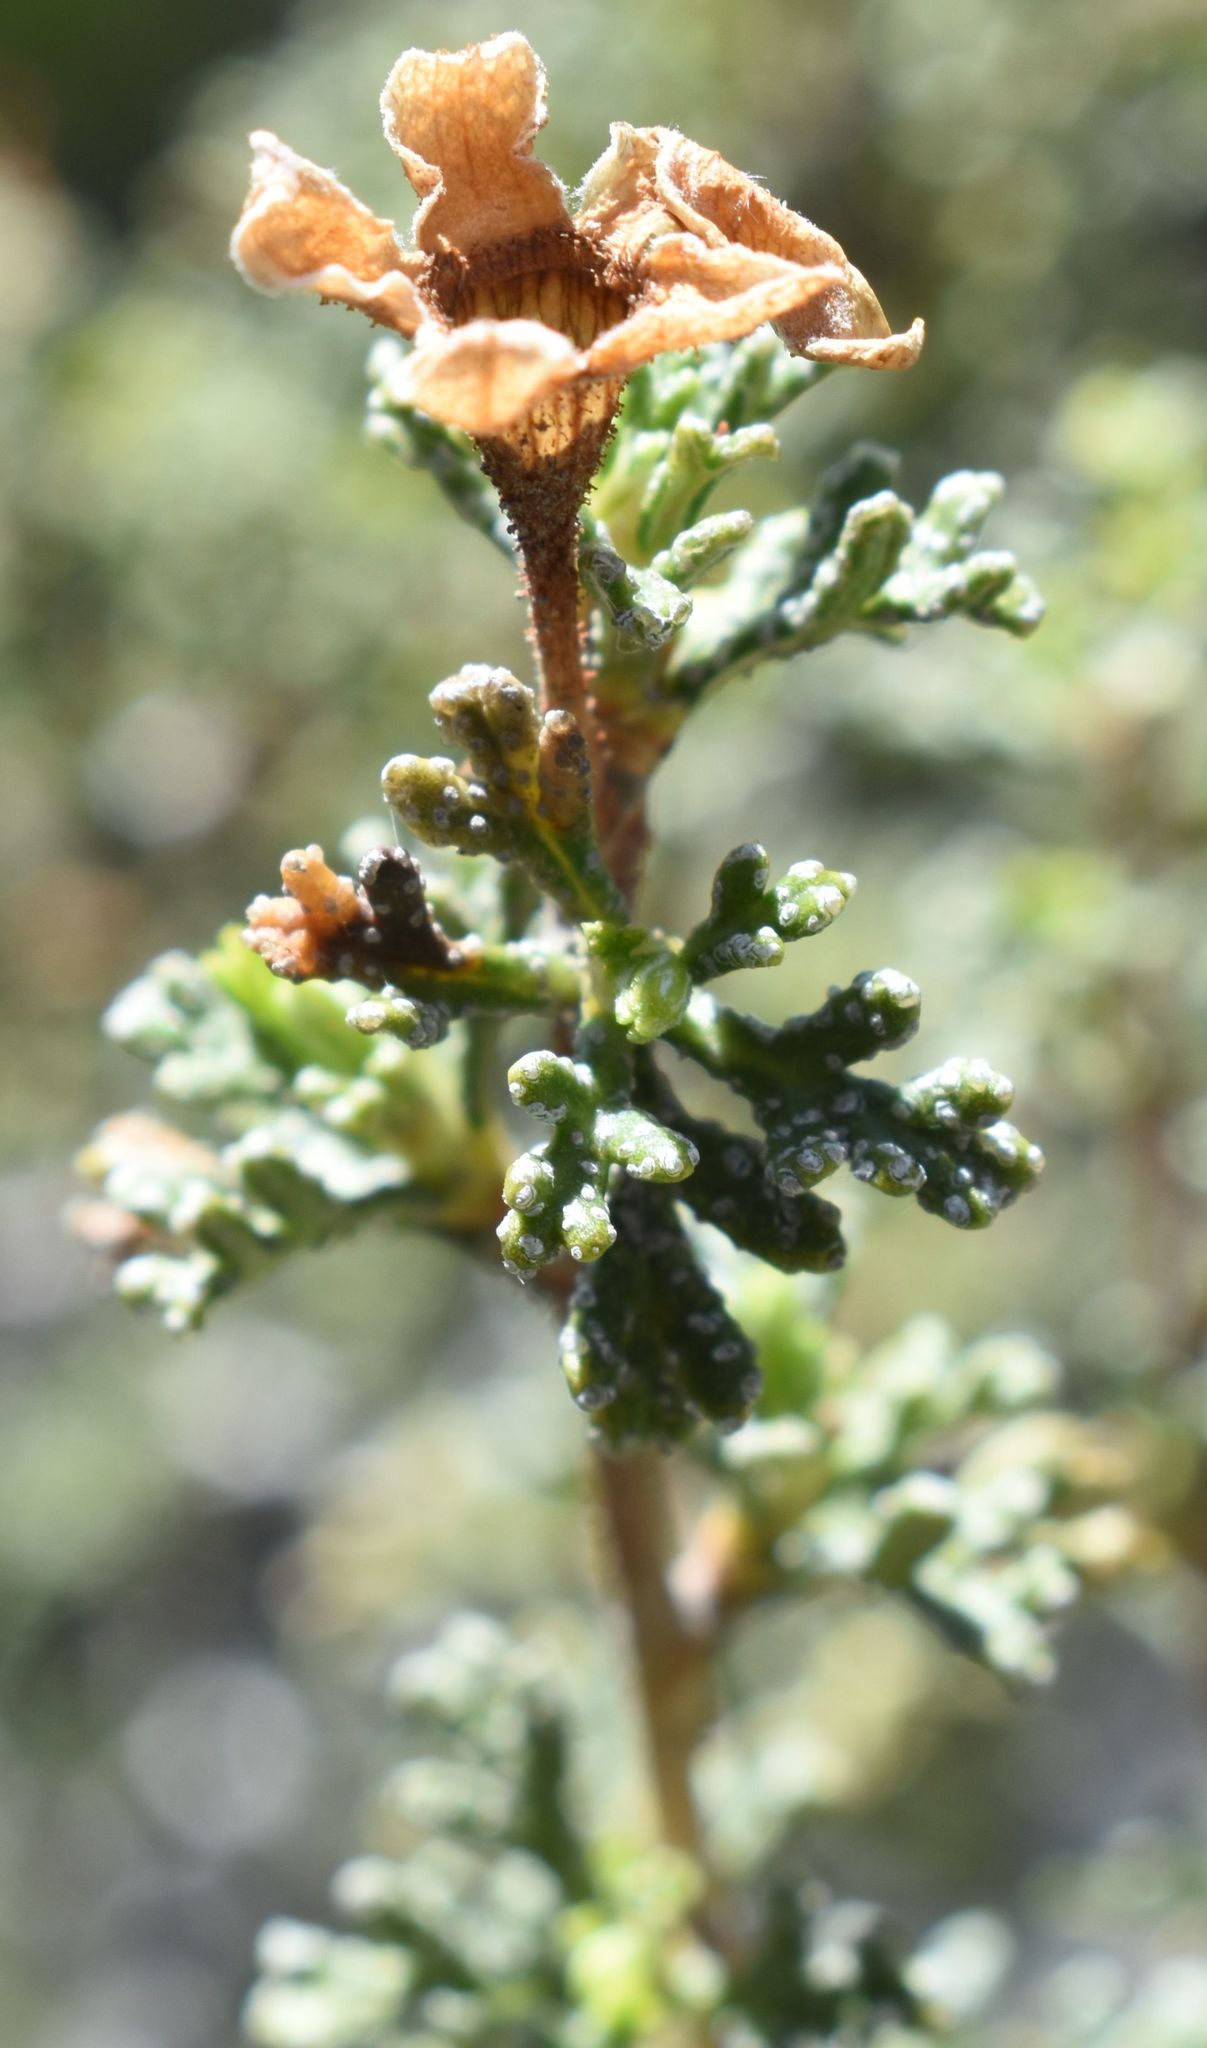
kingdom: Plantae
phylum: Tracheophyta
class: Magnoliopsida
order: Rosales
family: Rosaceae
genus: Purshia
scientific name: Purshia stansburiana
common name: Stansbury's cliffrose
